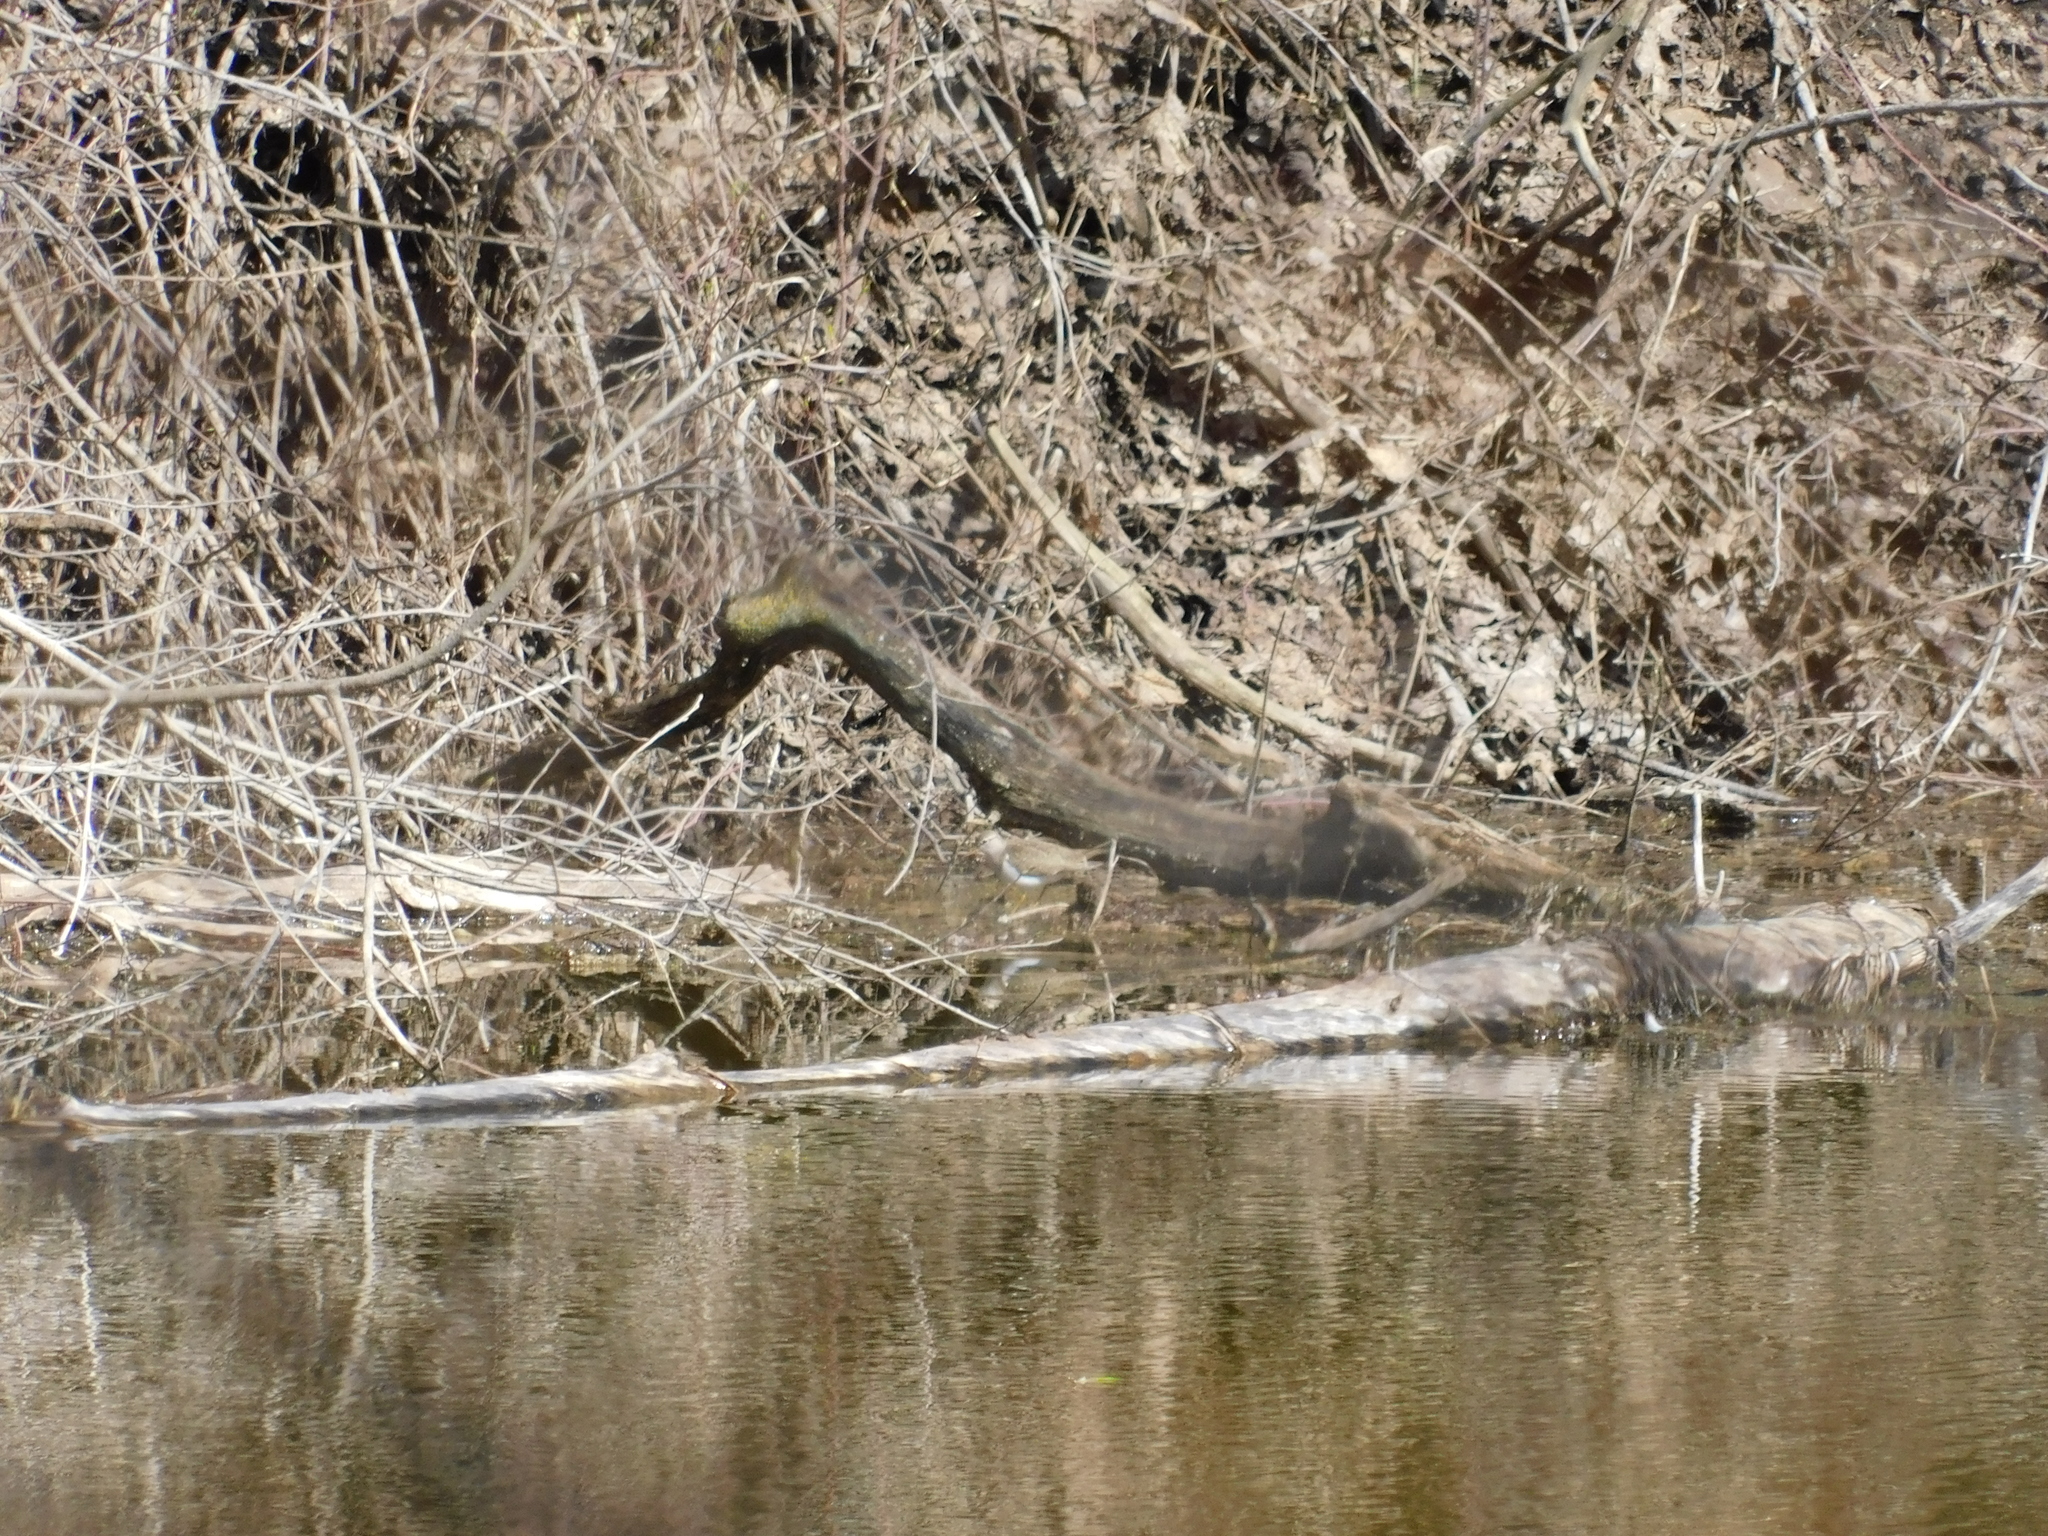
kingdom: Animalia
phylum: Chordata
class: Aves
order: Charadriiformes
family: Scolopacidae
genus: Actitis
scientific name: Actitis hypoleucos
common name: Common sandpiper
